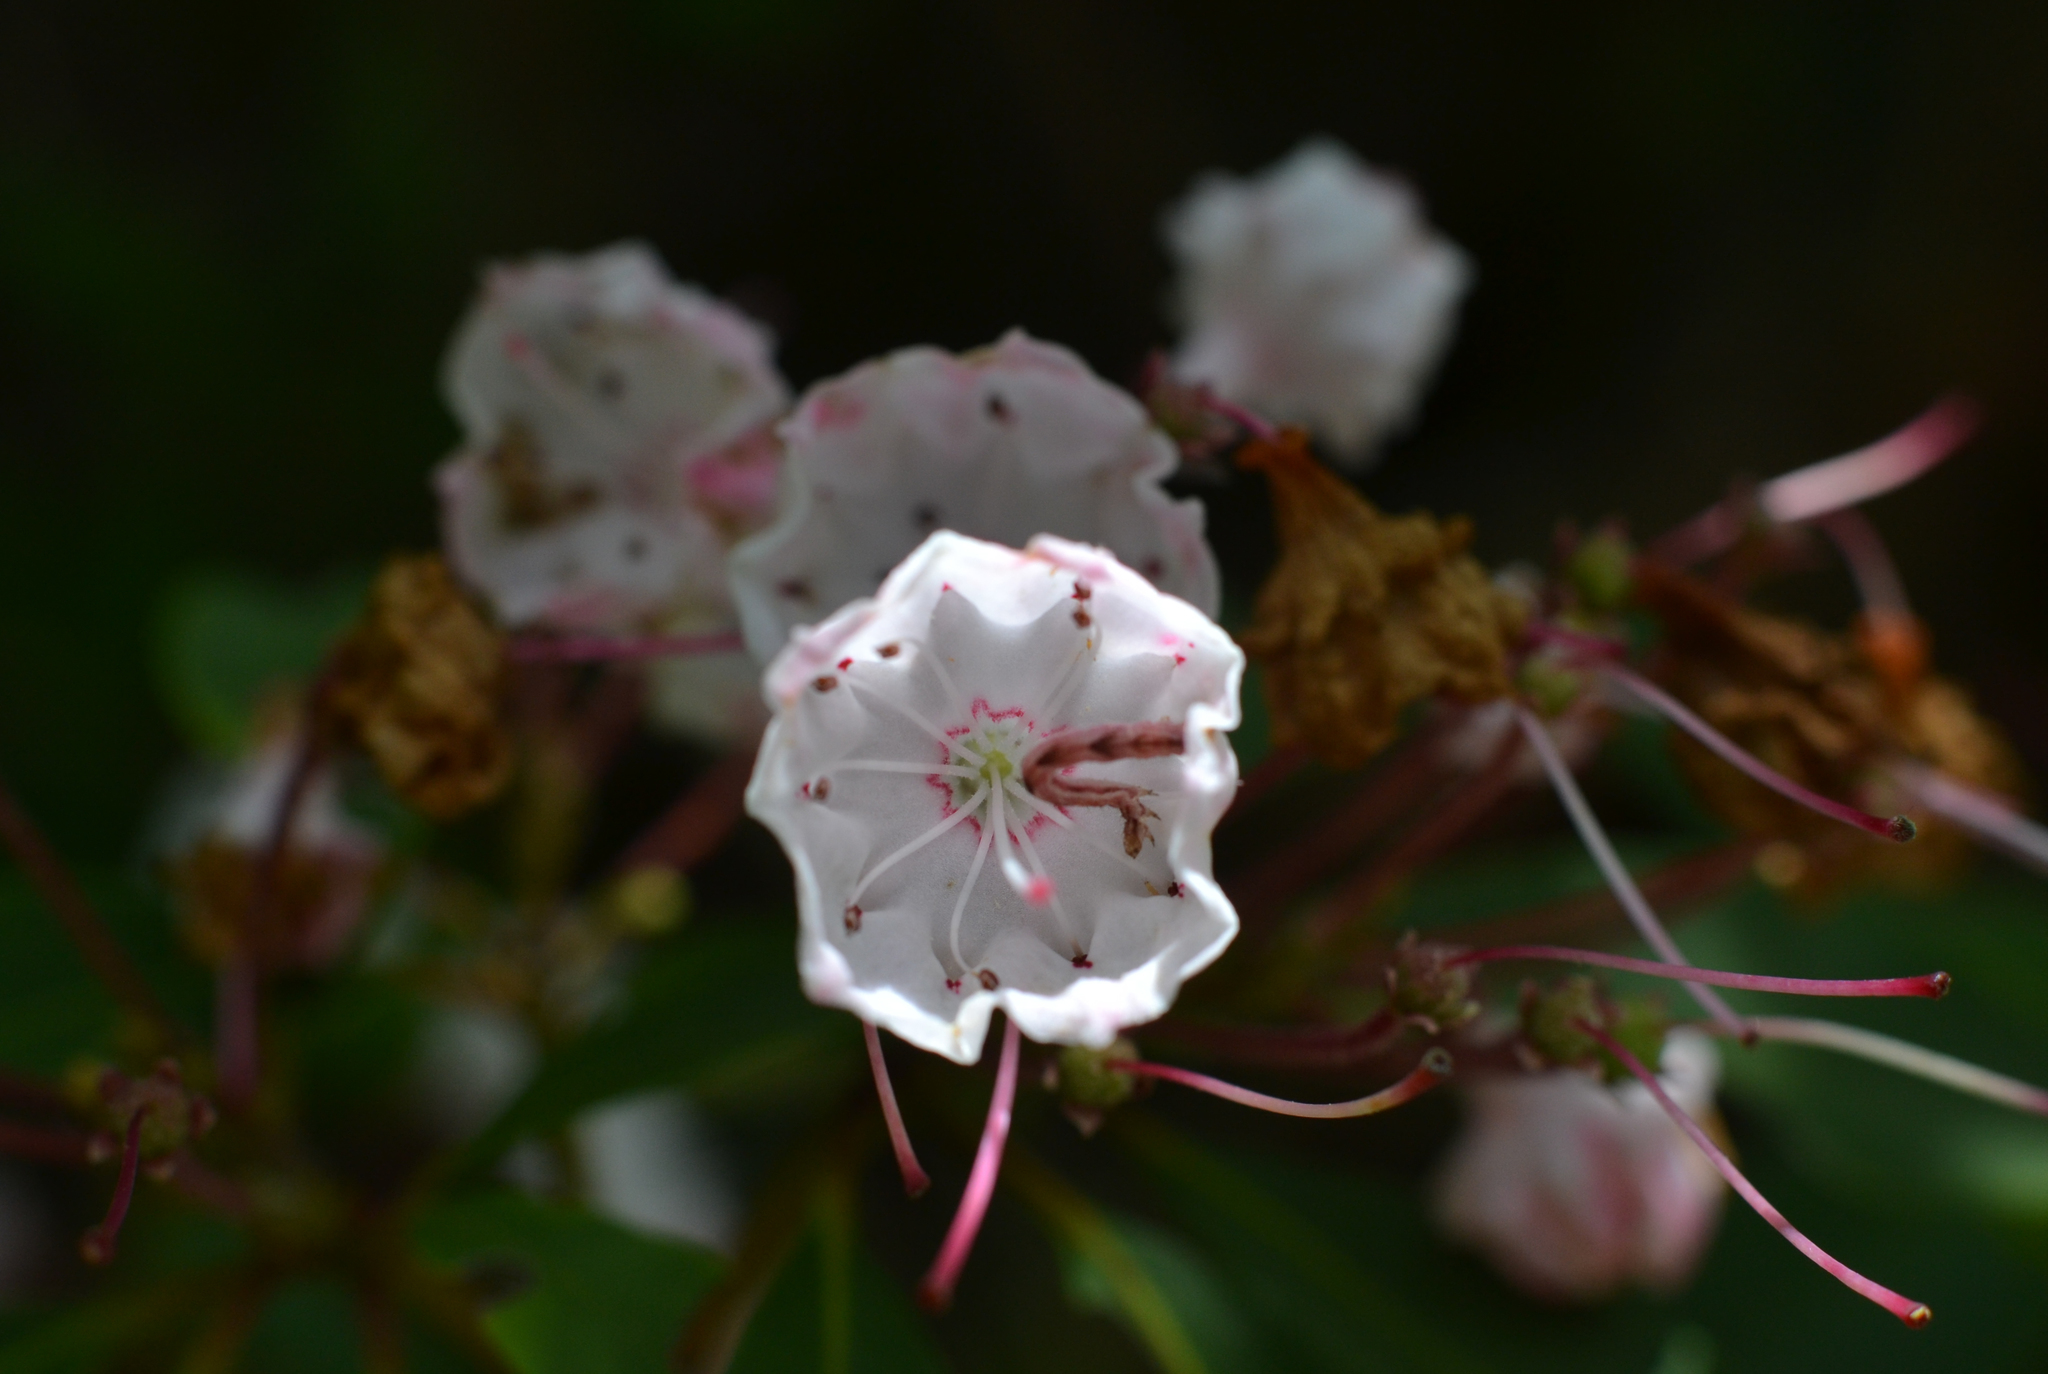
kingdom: Plantae
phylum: Tracheophyta
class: Magnoliopsida
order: Ericales
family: Ericaceae
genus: Kalmia
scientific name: Kalmia latifolia
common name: Mountain-laurel
